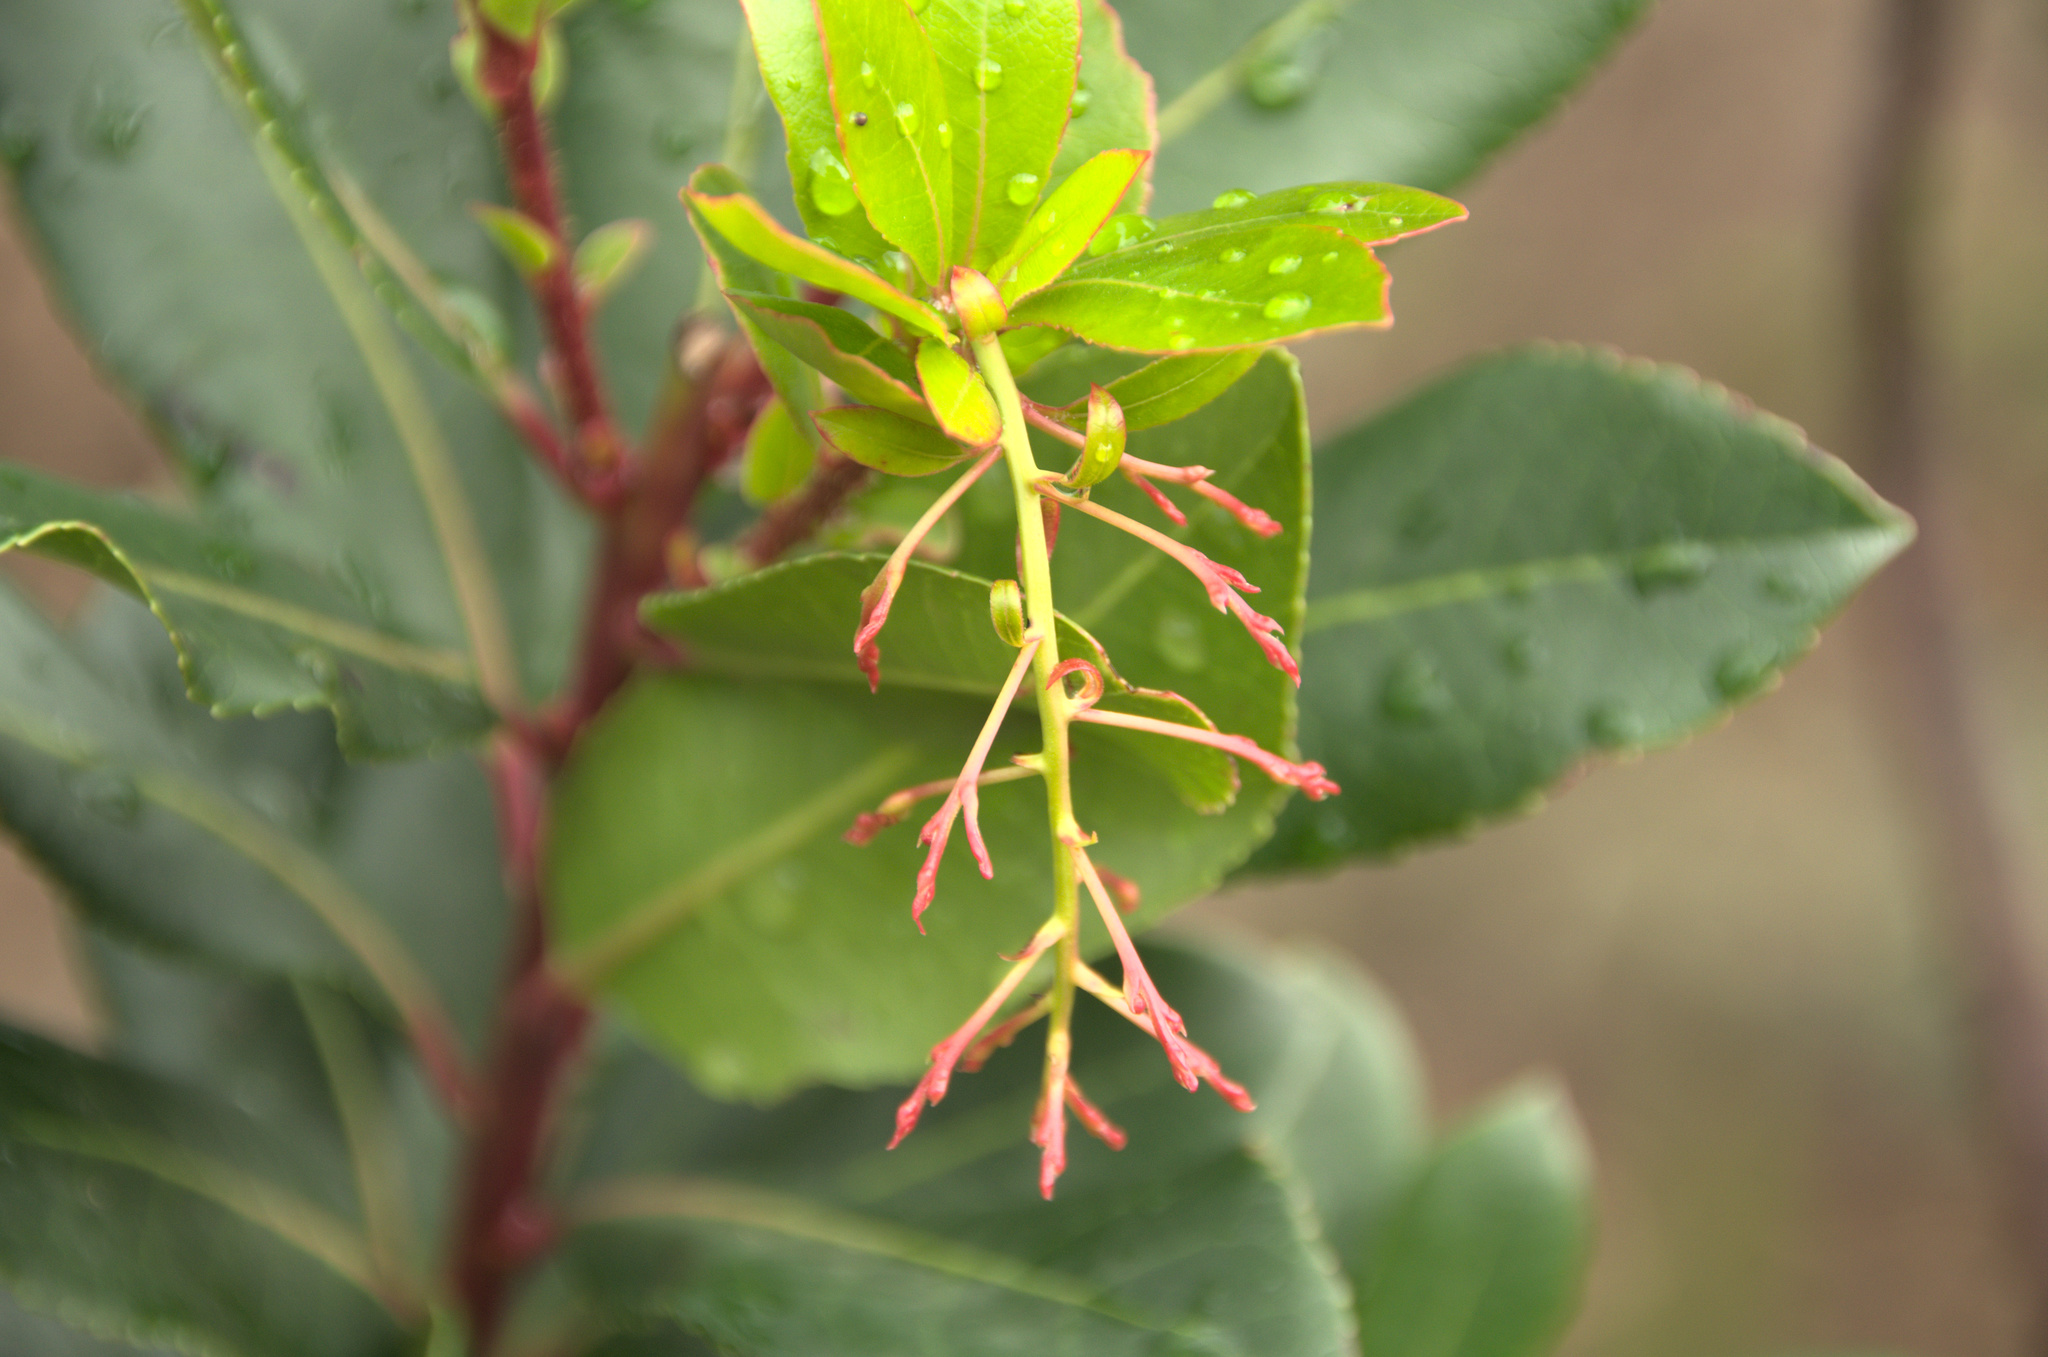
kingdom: Plantae
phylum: Tracheophyta
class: Magnoliopsida
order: Ericales
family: Ericaceae
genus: Arbutus
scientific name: Arbutus unedo
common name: Strawberry-tree
